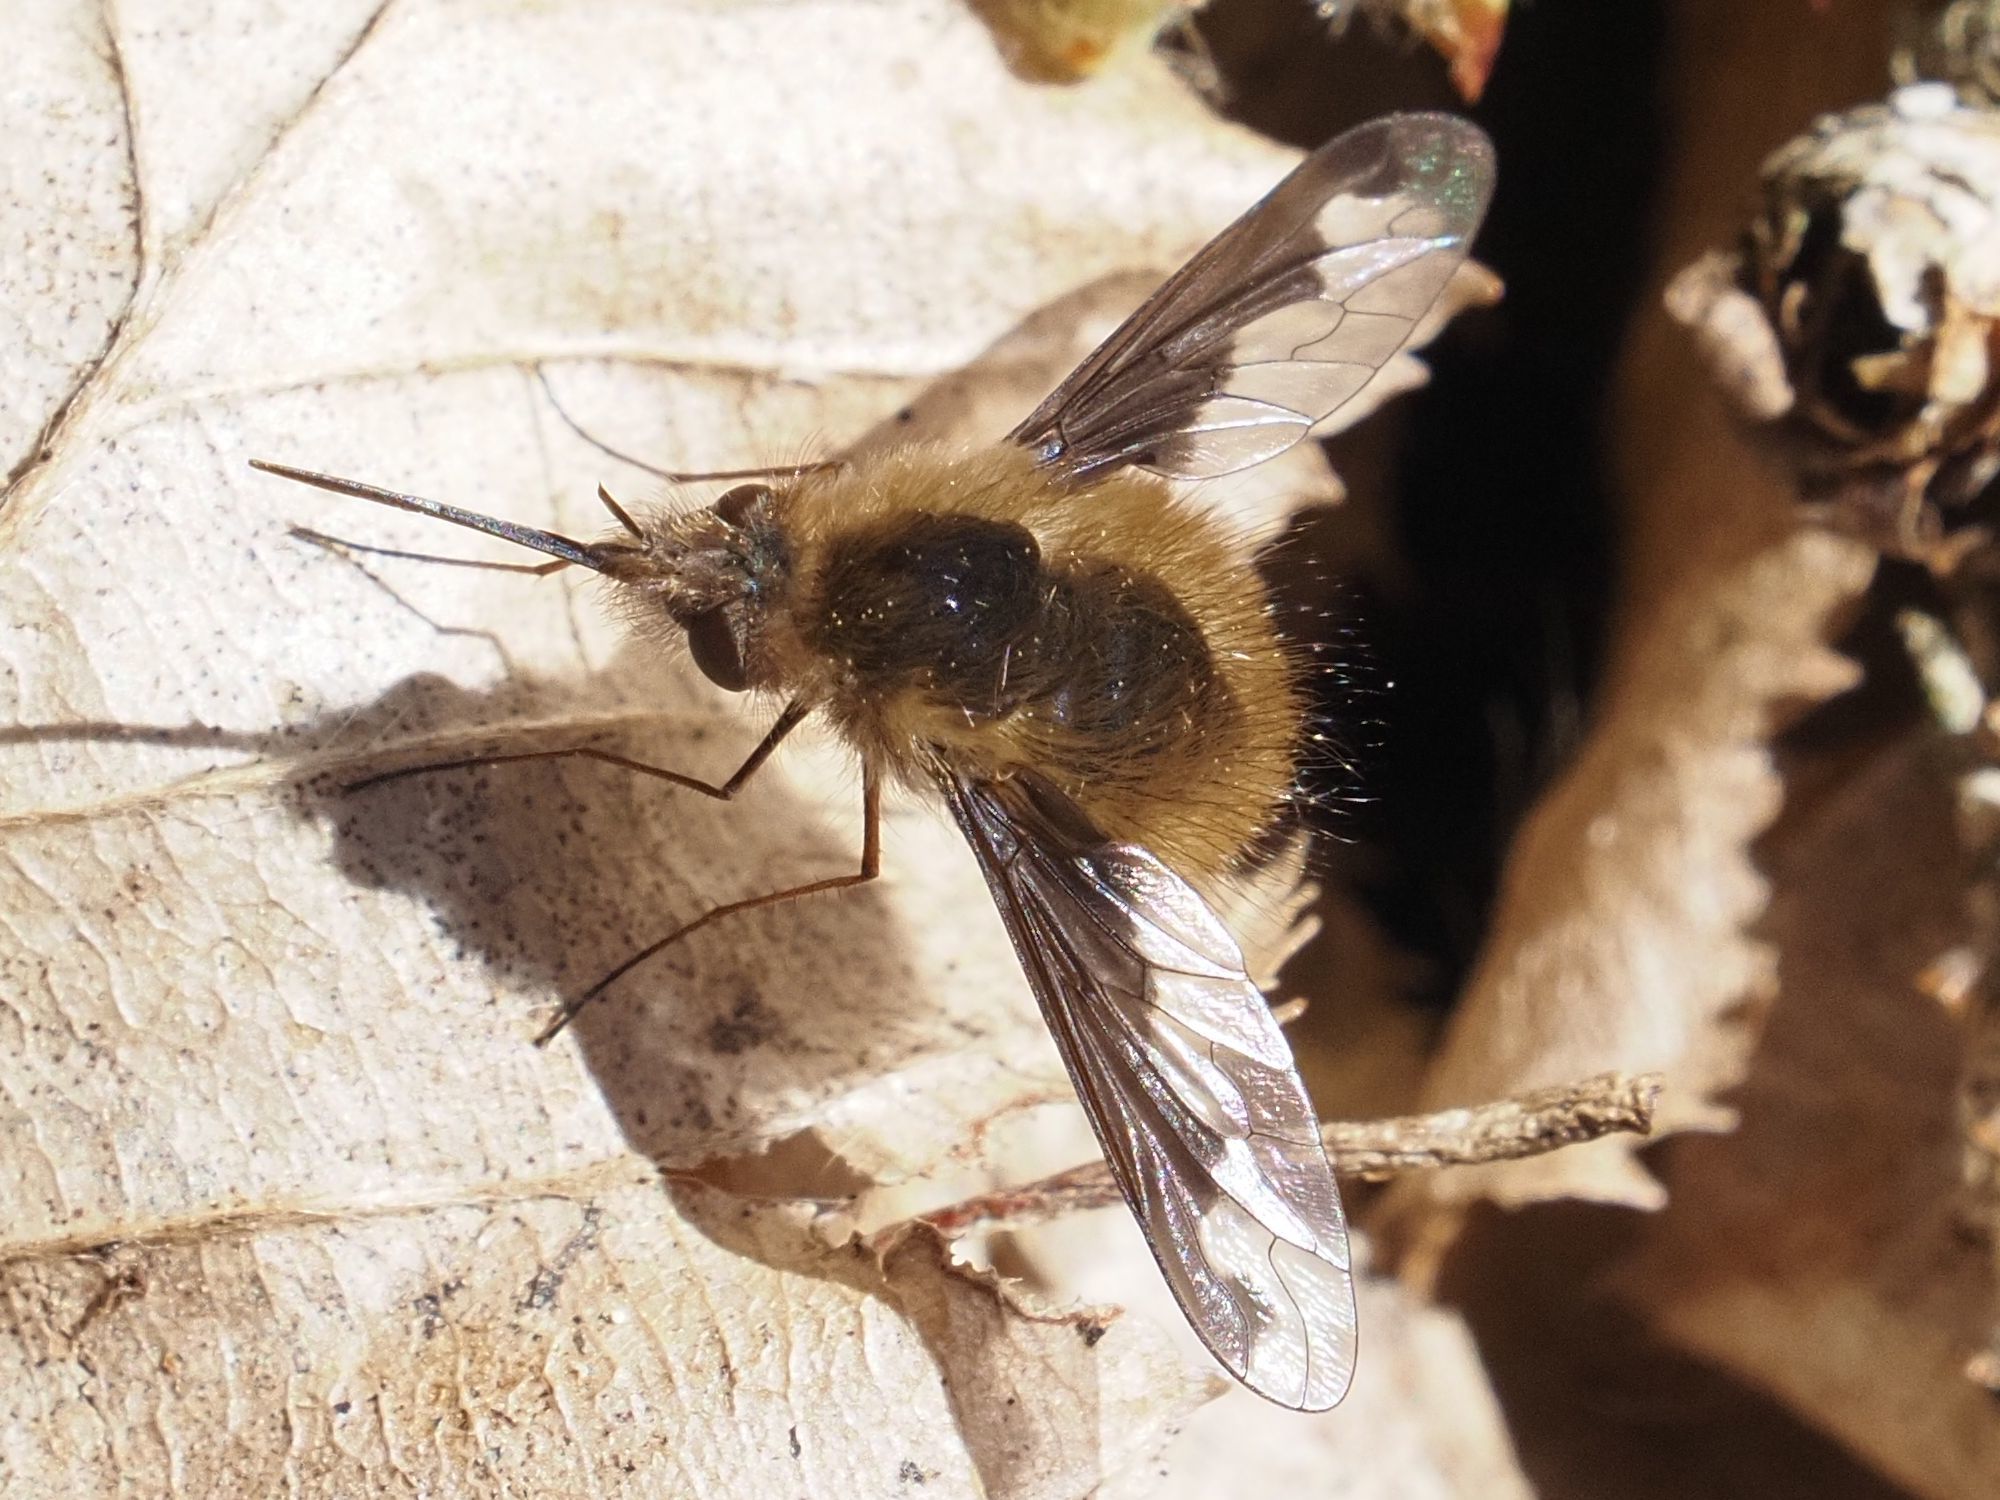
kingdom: Animalia
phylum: Arthropoda
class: Insecta
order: Diptera
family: Bombyliidae
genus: Bombylius
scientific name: Bombylius major
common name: Bee fly
